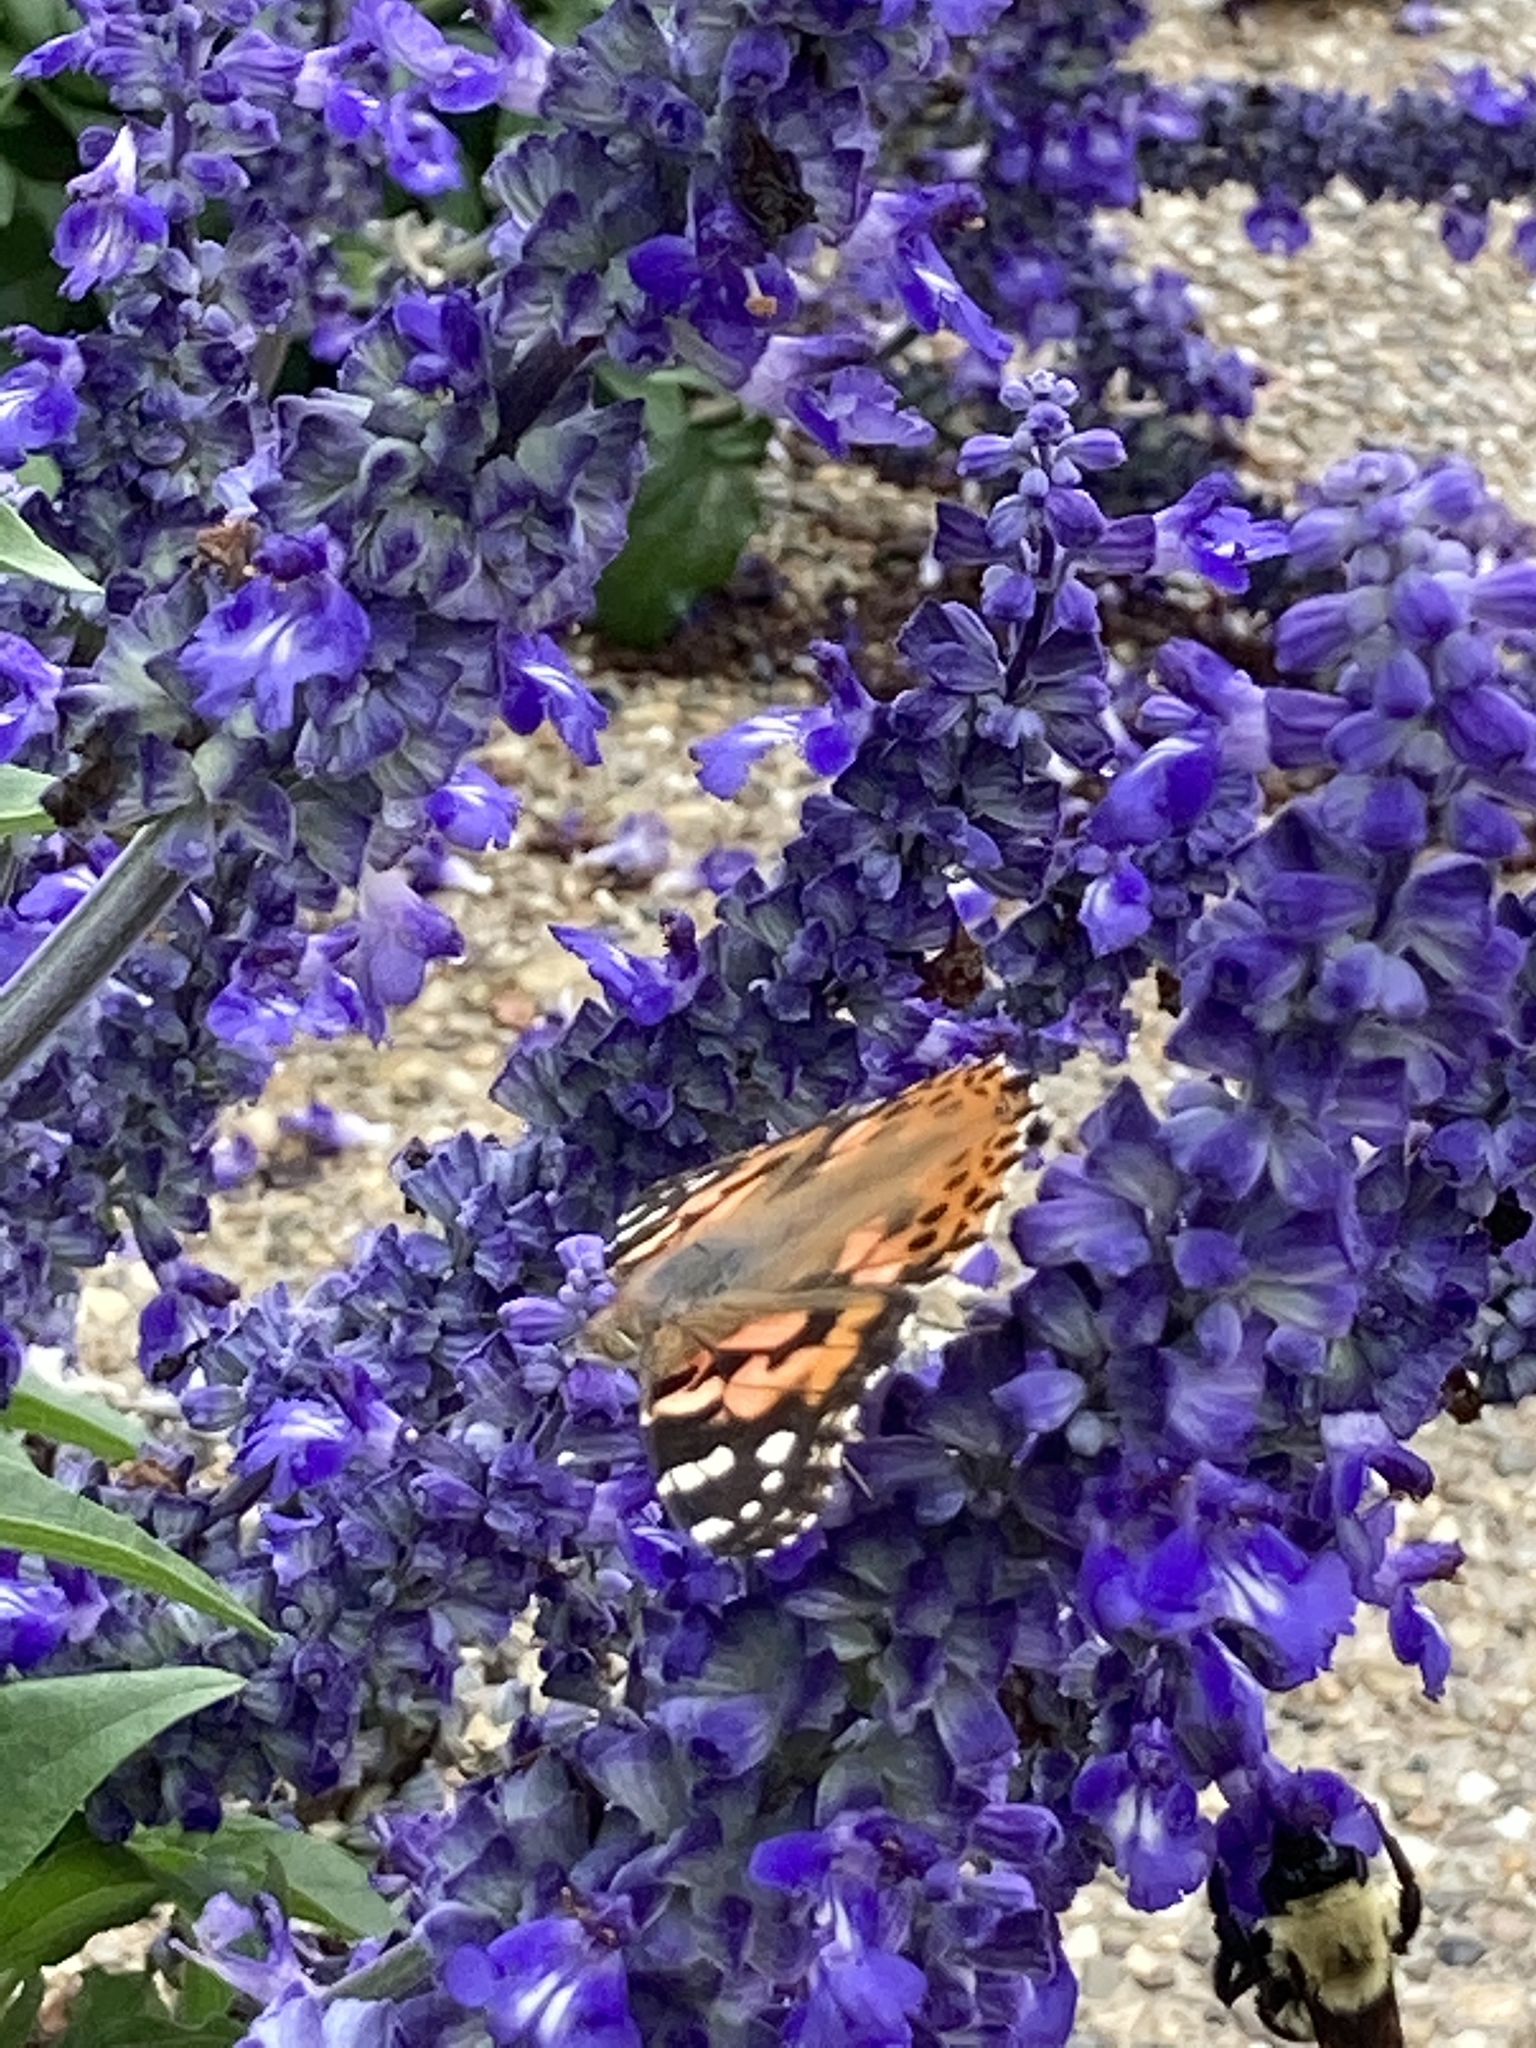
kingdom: Animalia
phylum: Arthropoda
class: Insecta
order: Lepidoptera
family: Nymphalidae
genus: Vanessa
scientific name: Vanessa cardui
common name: Painted lady
